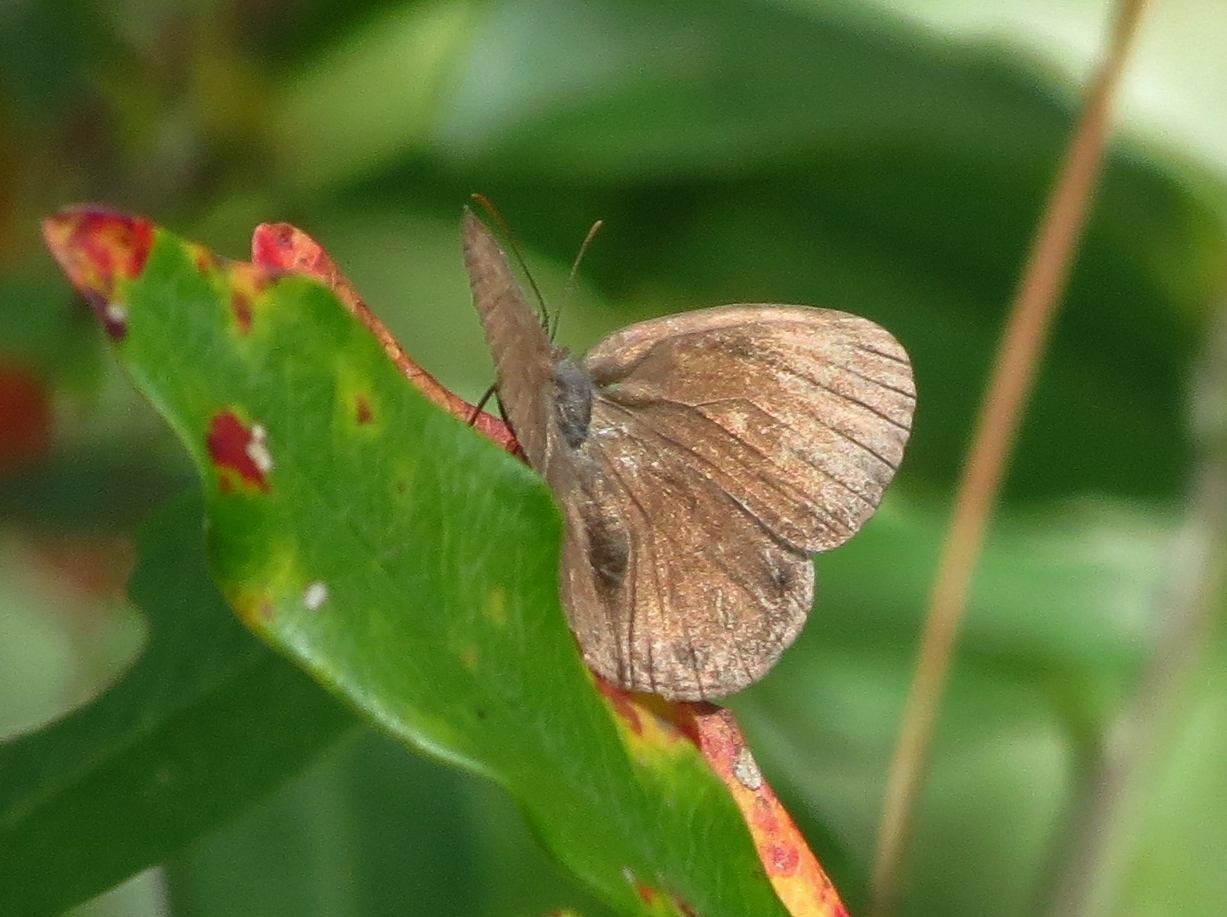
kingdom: Animalia
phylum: Arthropoda
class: Insecta
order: Lepidoptera
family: Nymphalidae
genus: Hermeuptychia
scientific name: Hermeuptychia hermes
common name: Hermes satyr
